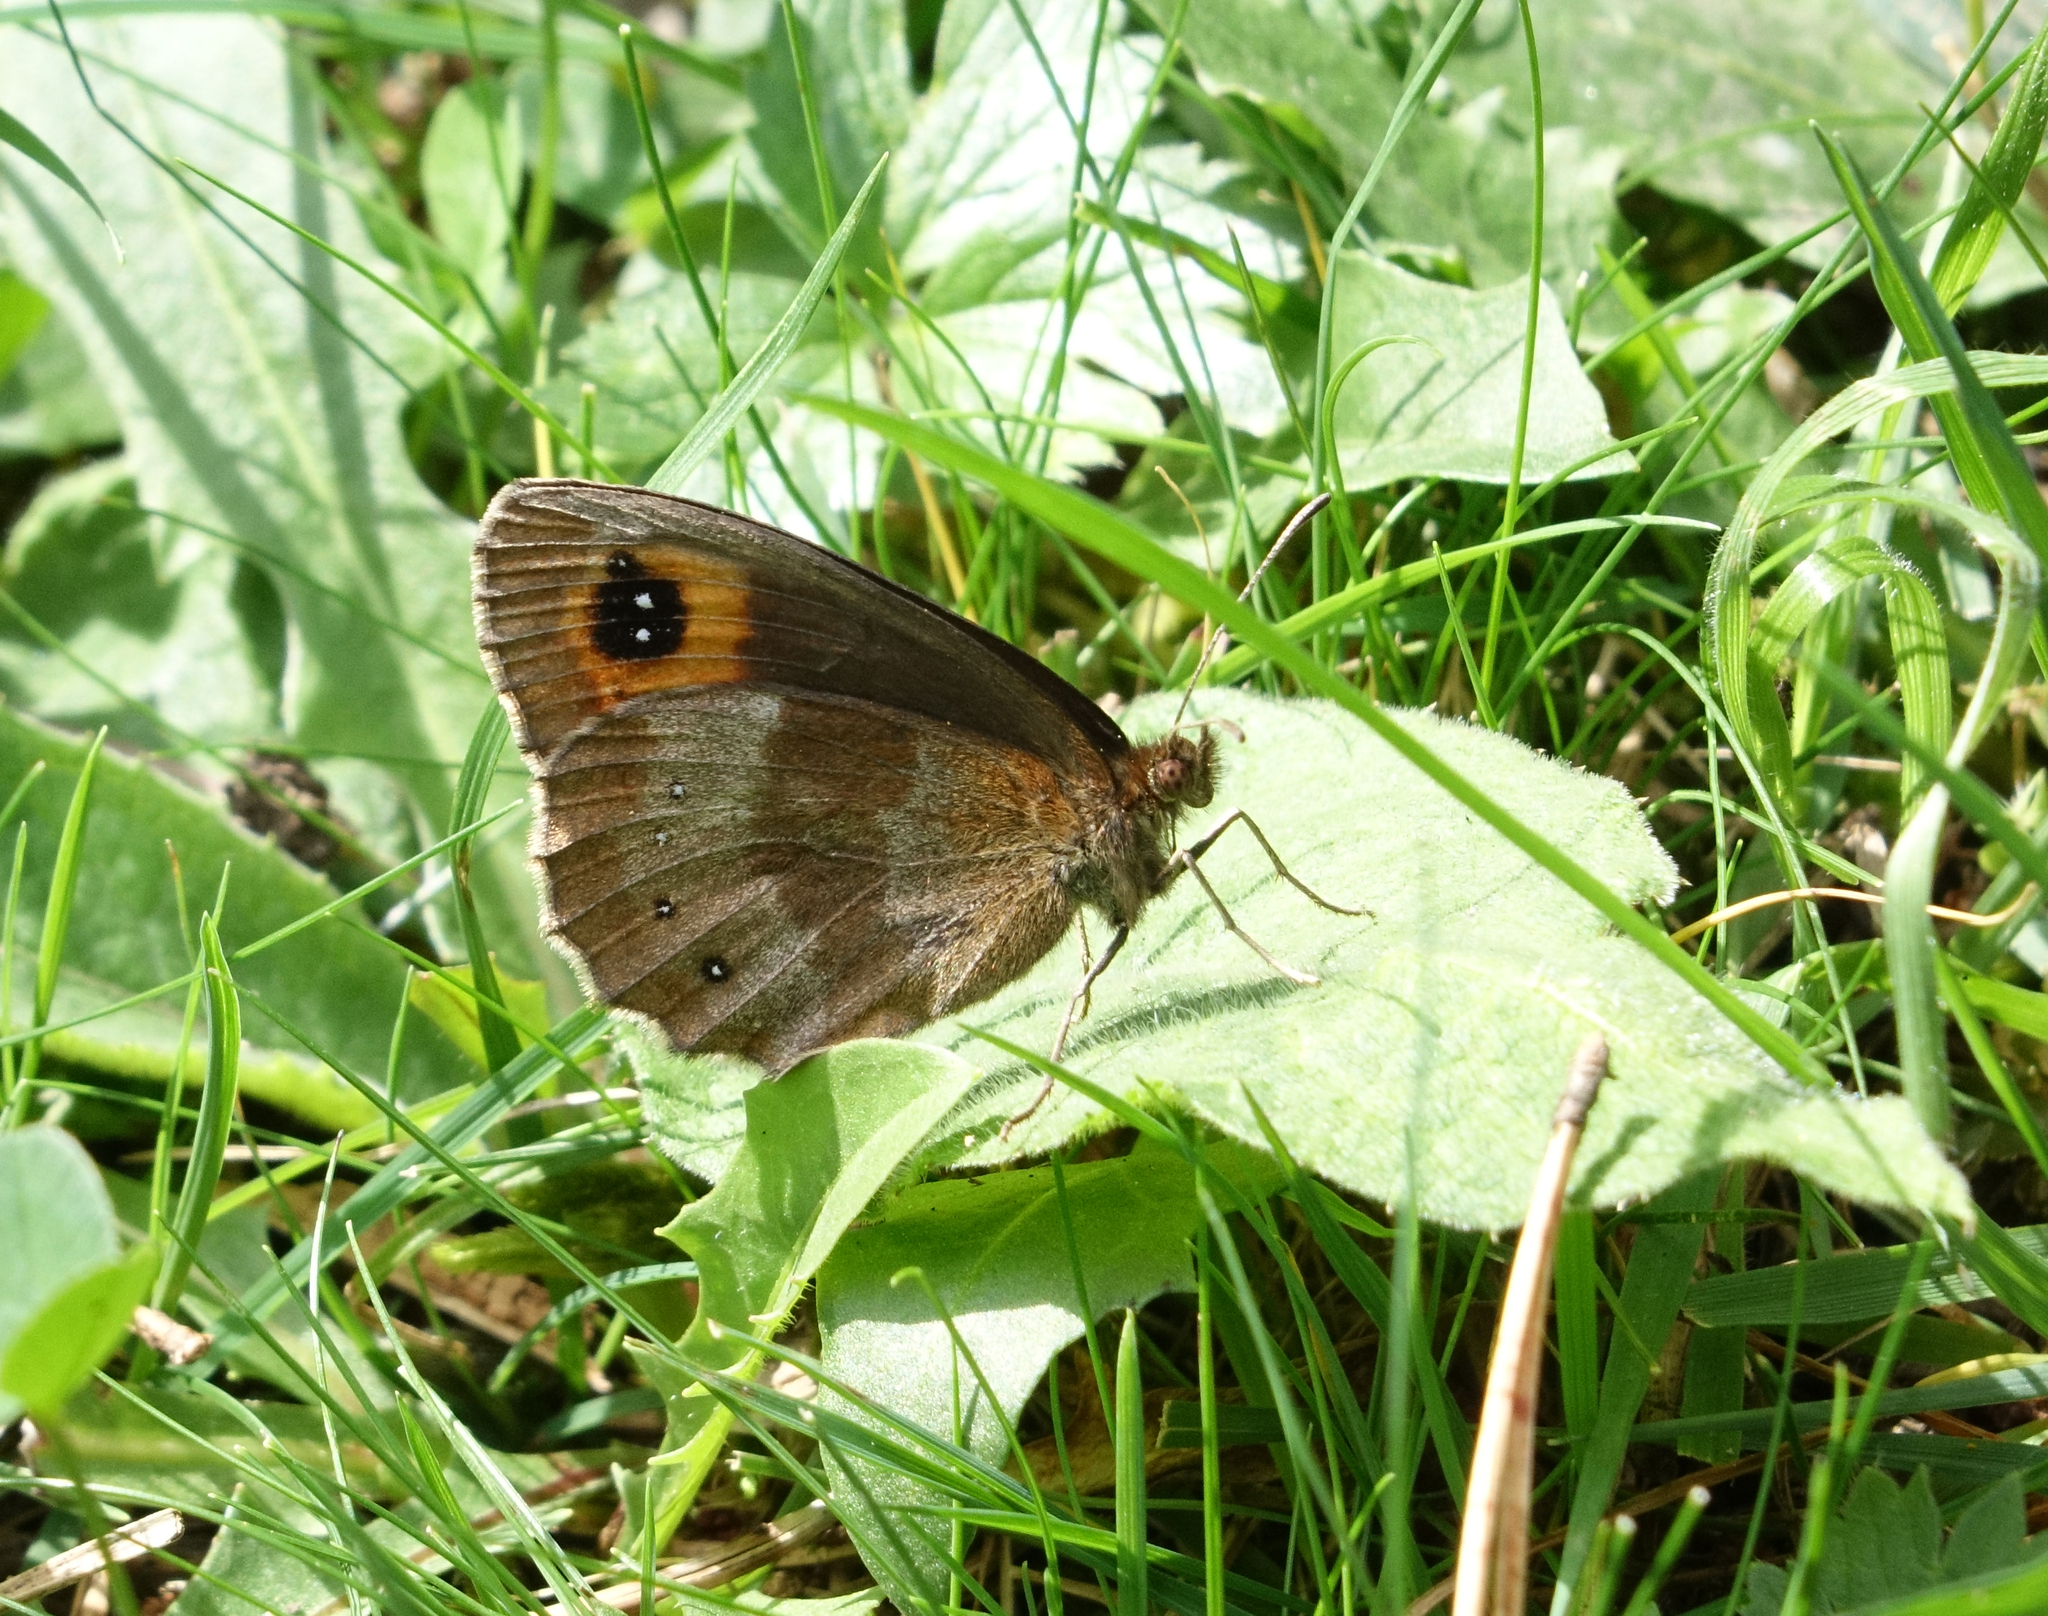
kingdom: Animalia
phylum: Arthropoda
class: Insecta
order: Lepidoptera
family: Nymphalidae
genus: Erebia
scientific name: Erebia aethiops
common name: Scotch argus
